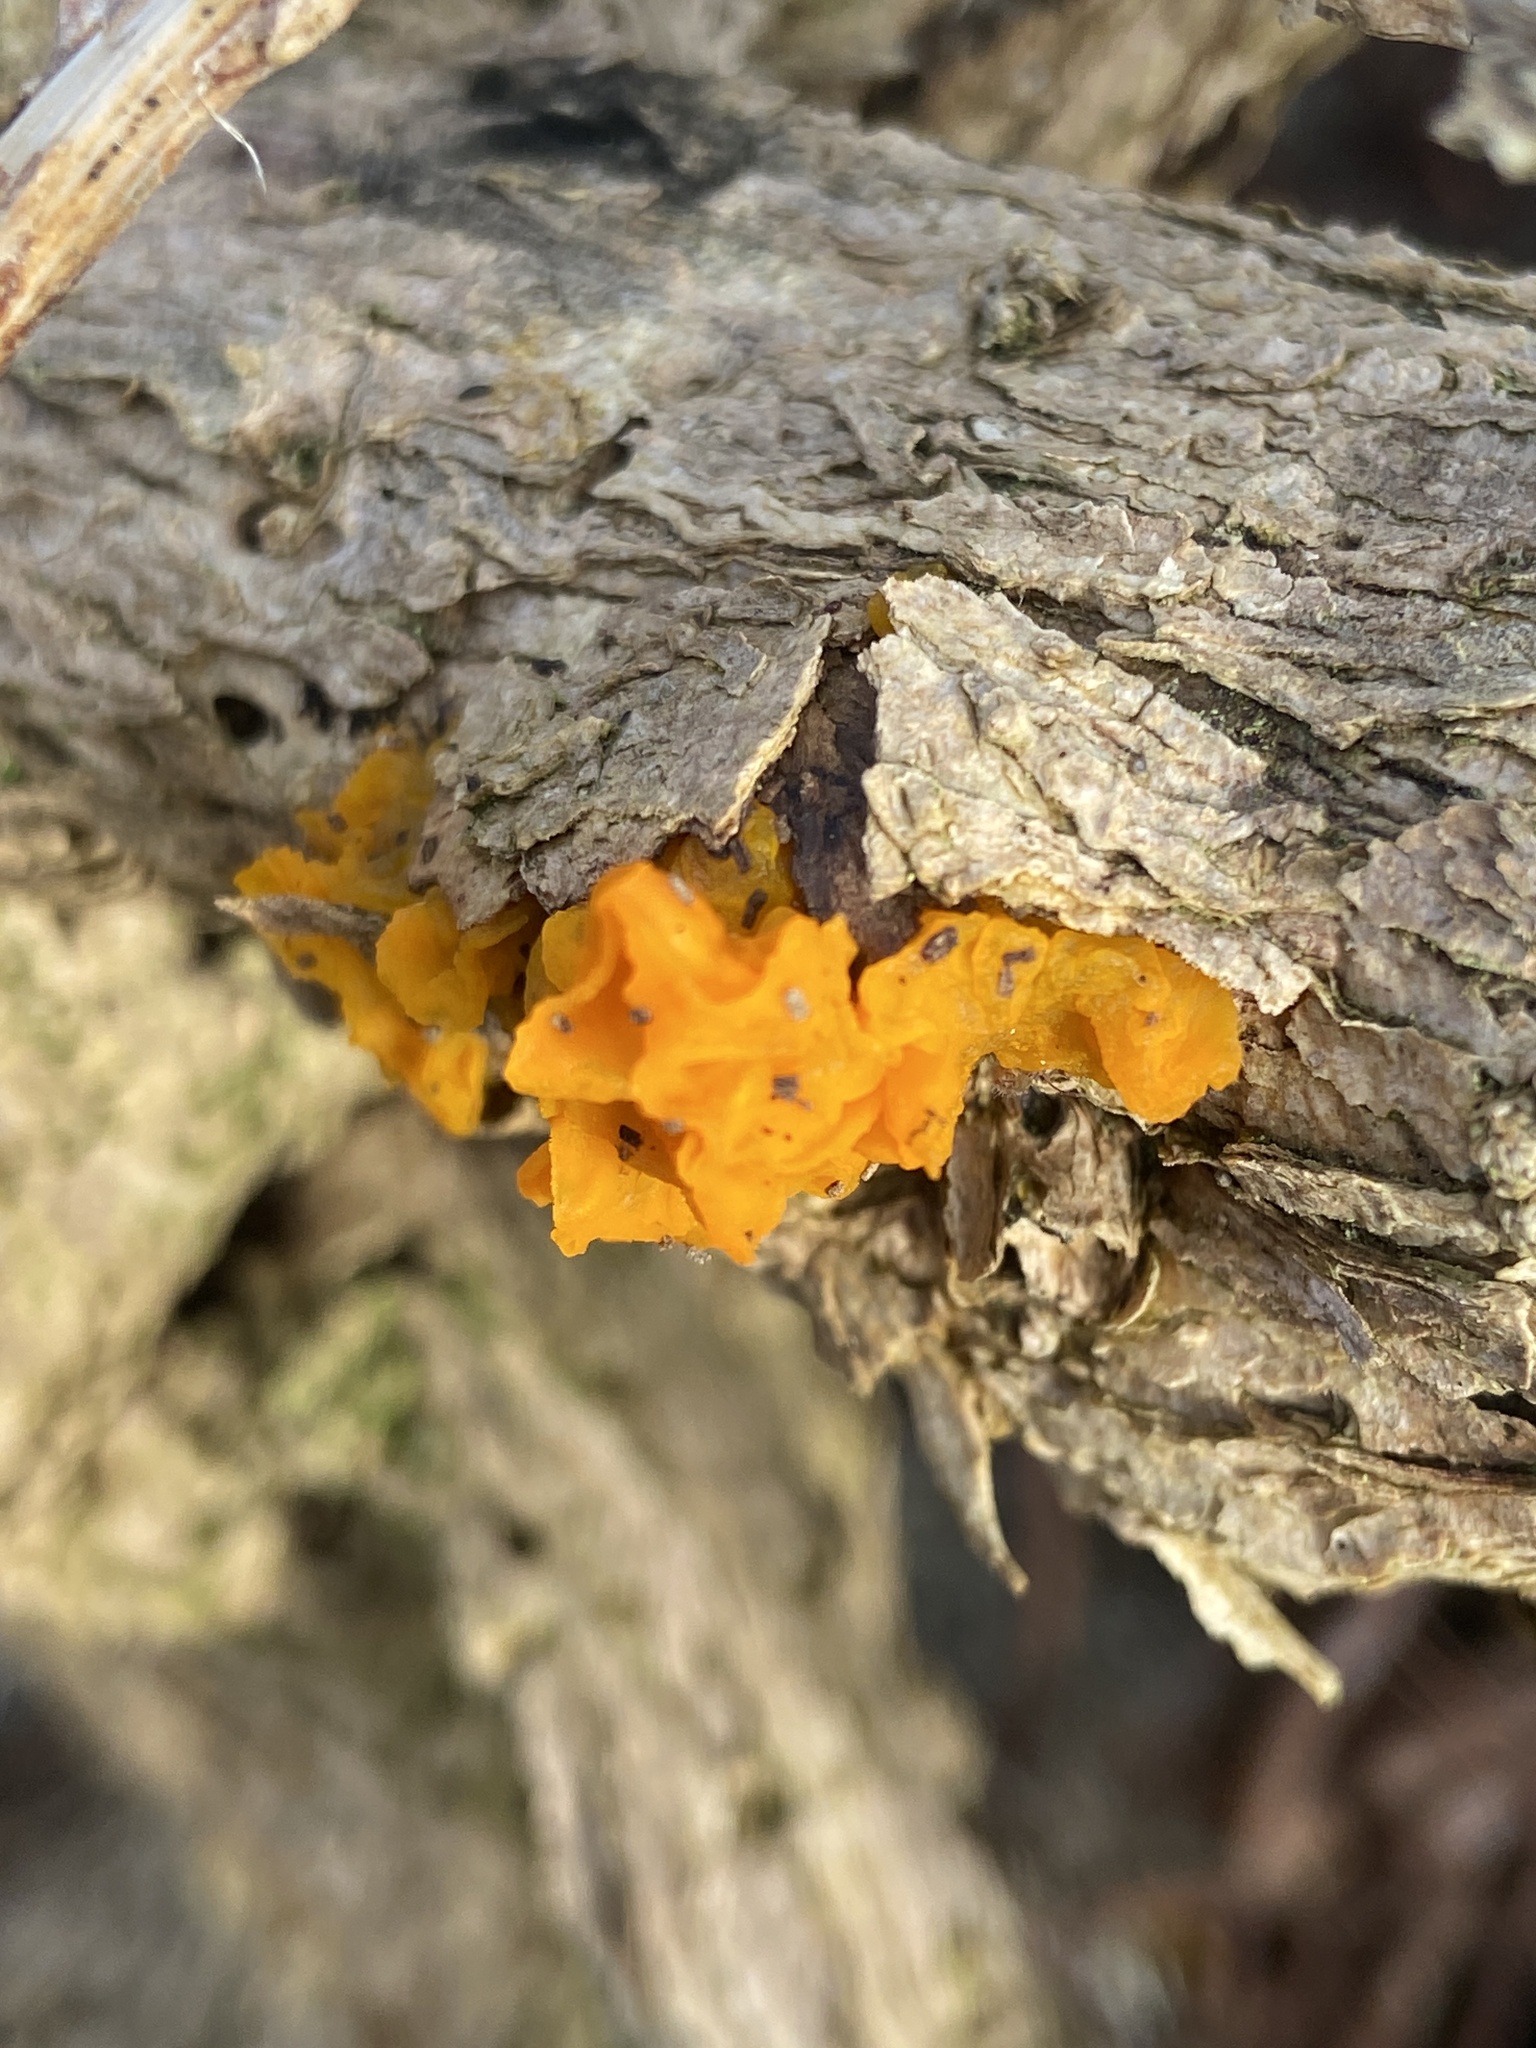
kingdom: Fungi
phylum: Basidiomycota
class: Tremellomycetes
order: Tremellales
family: Tremellaceae
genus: Tremella
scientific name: Tremella mesenterica
